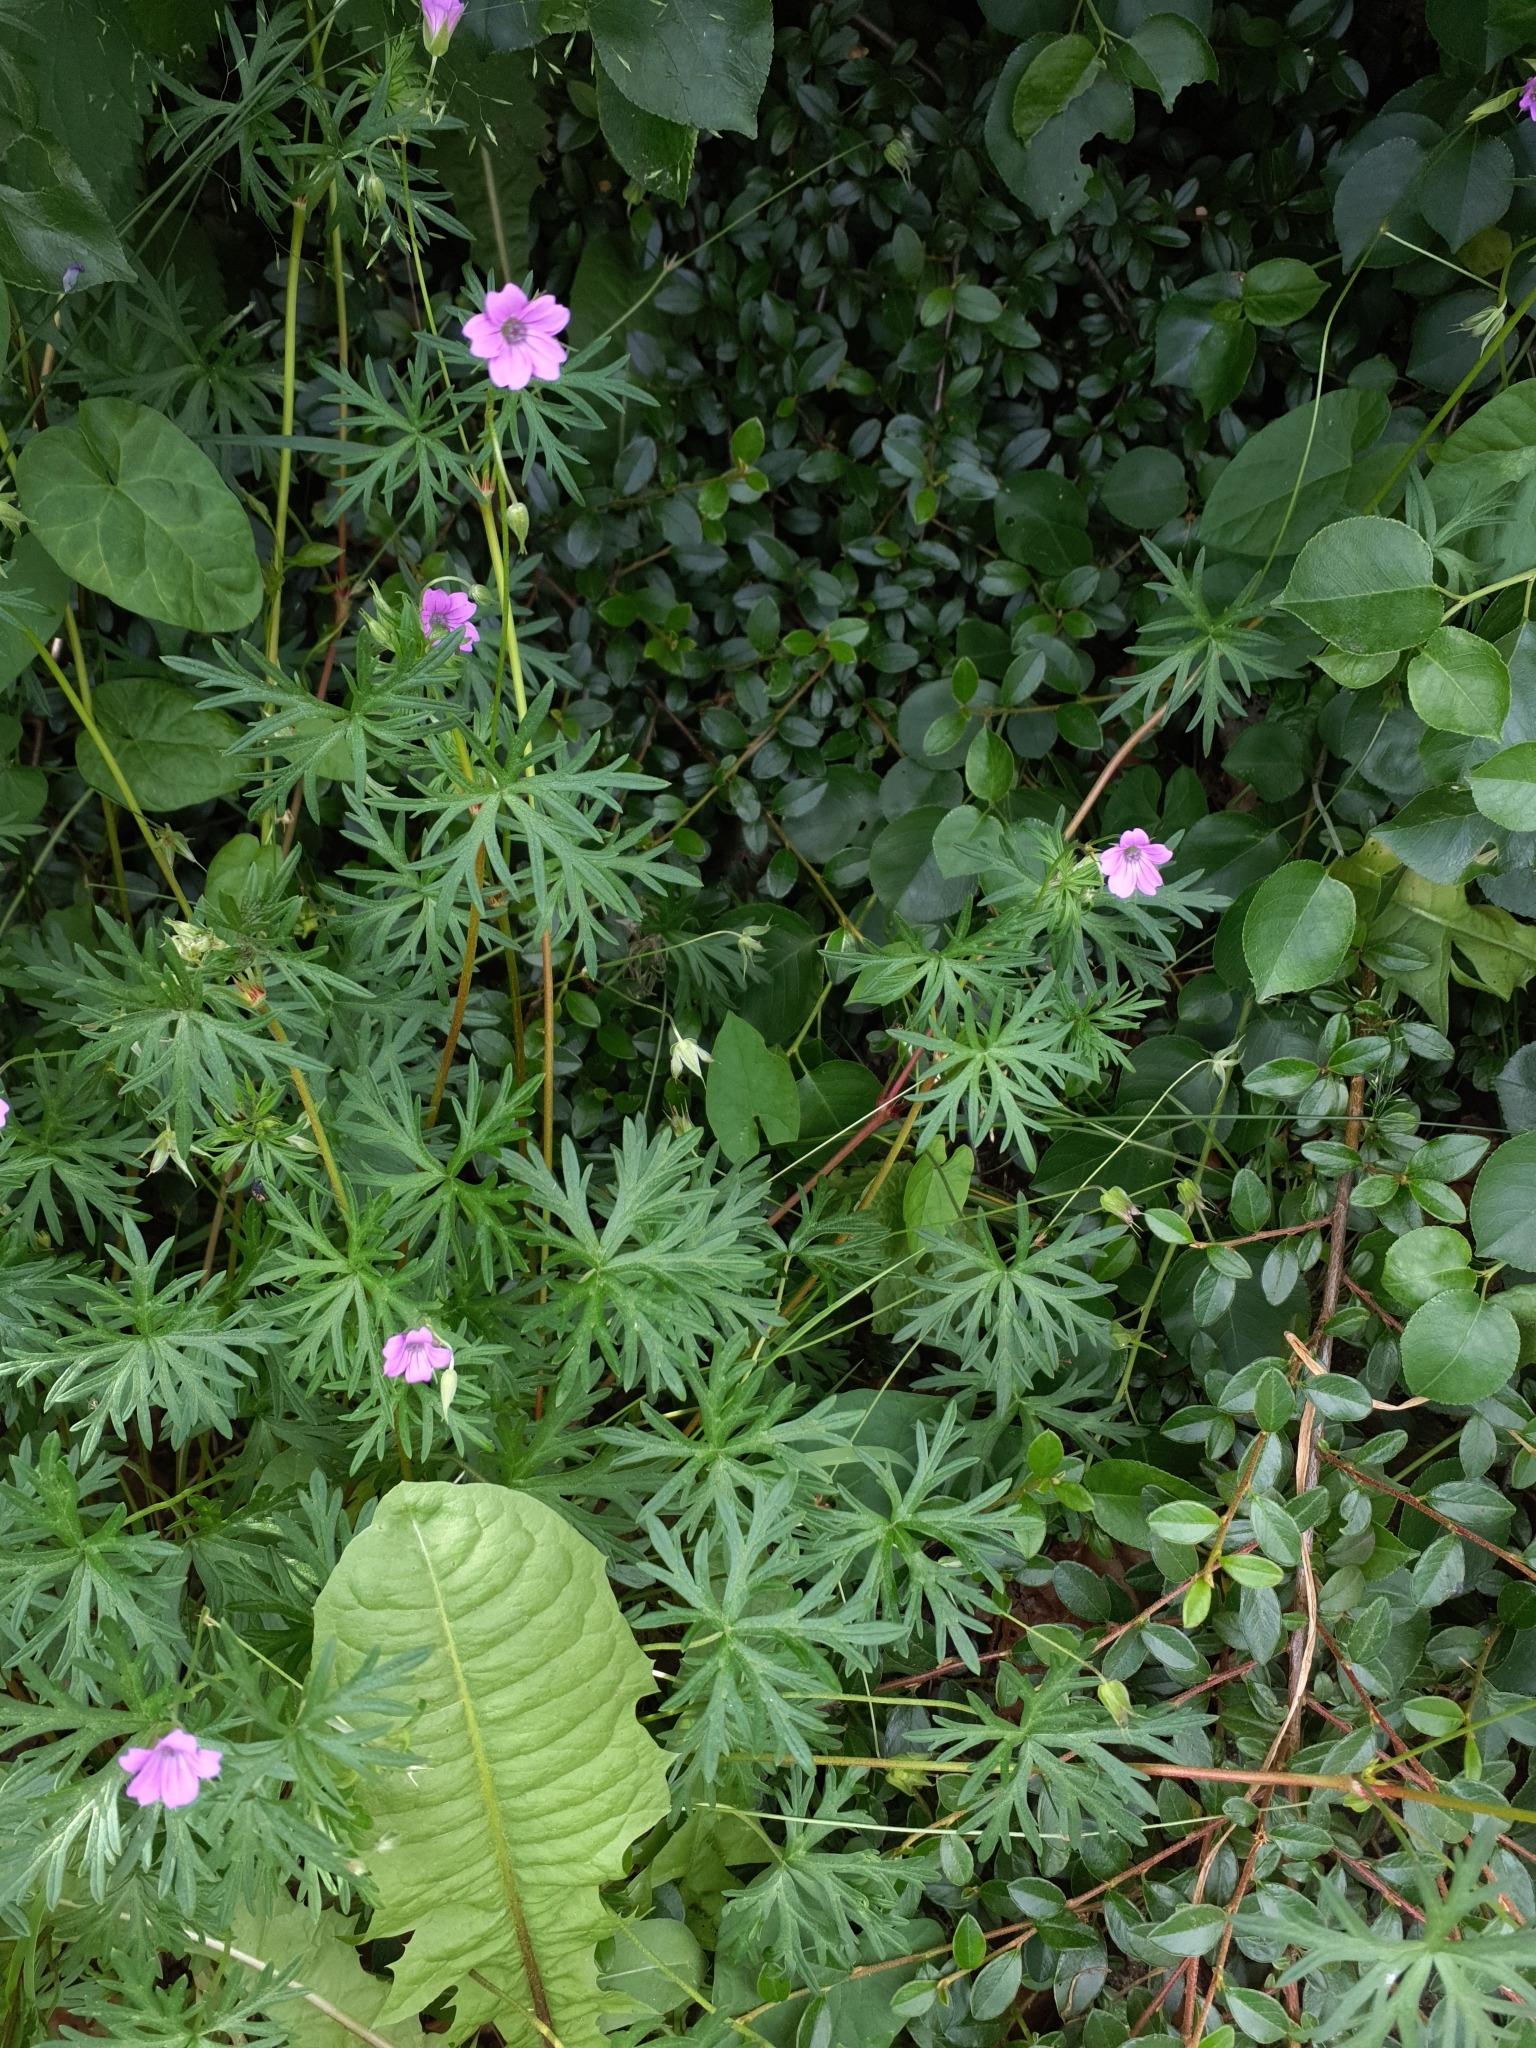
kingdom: Plantae
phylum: Tracheophyta
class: Magnoliopsida
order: Geraniales
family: Geraniaceae
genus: Geranium
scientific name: Geranium columbinum
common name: Long-stalked crane's-bill
